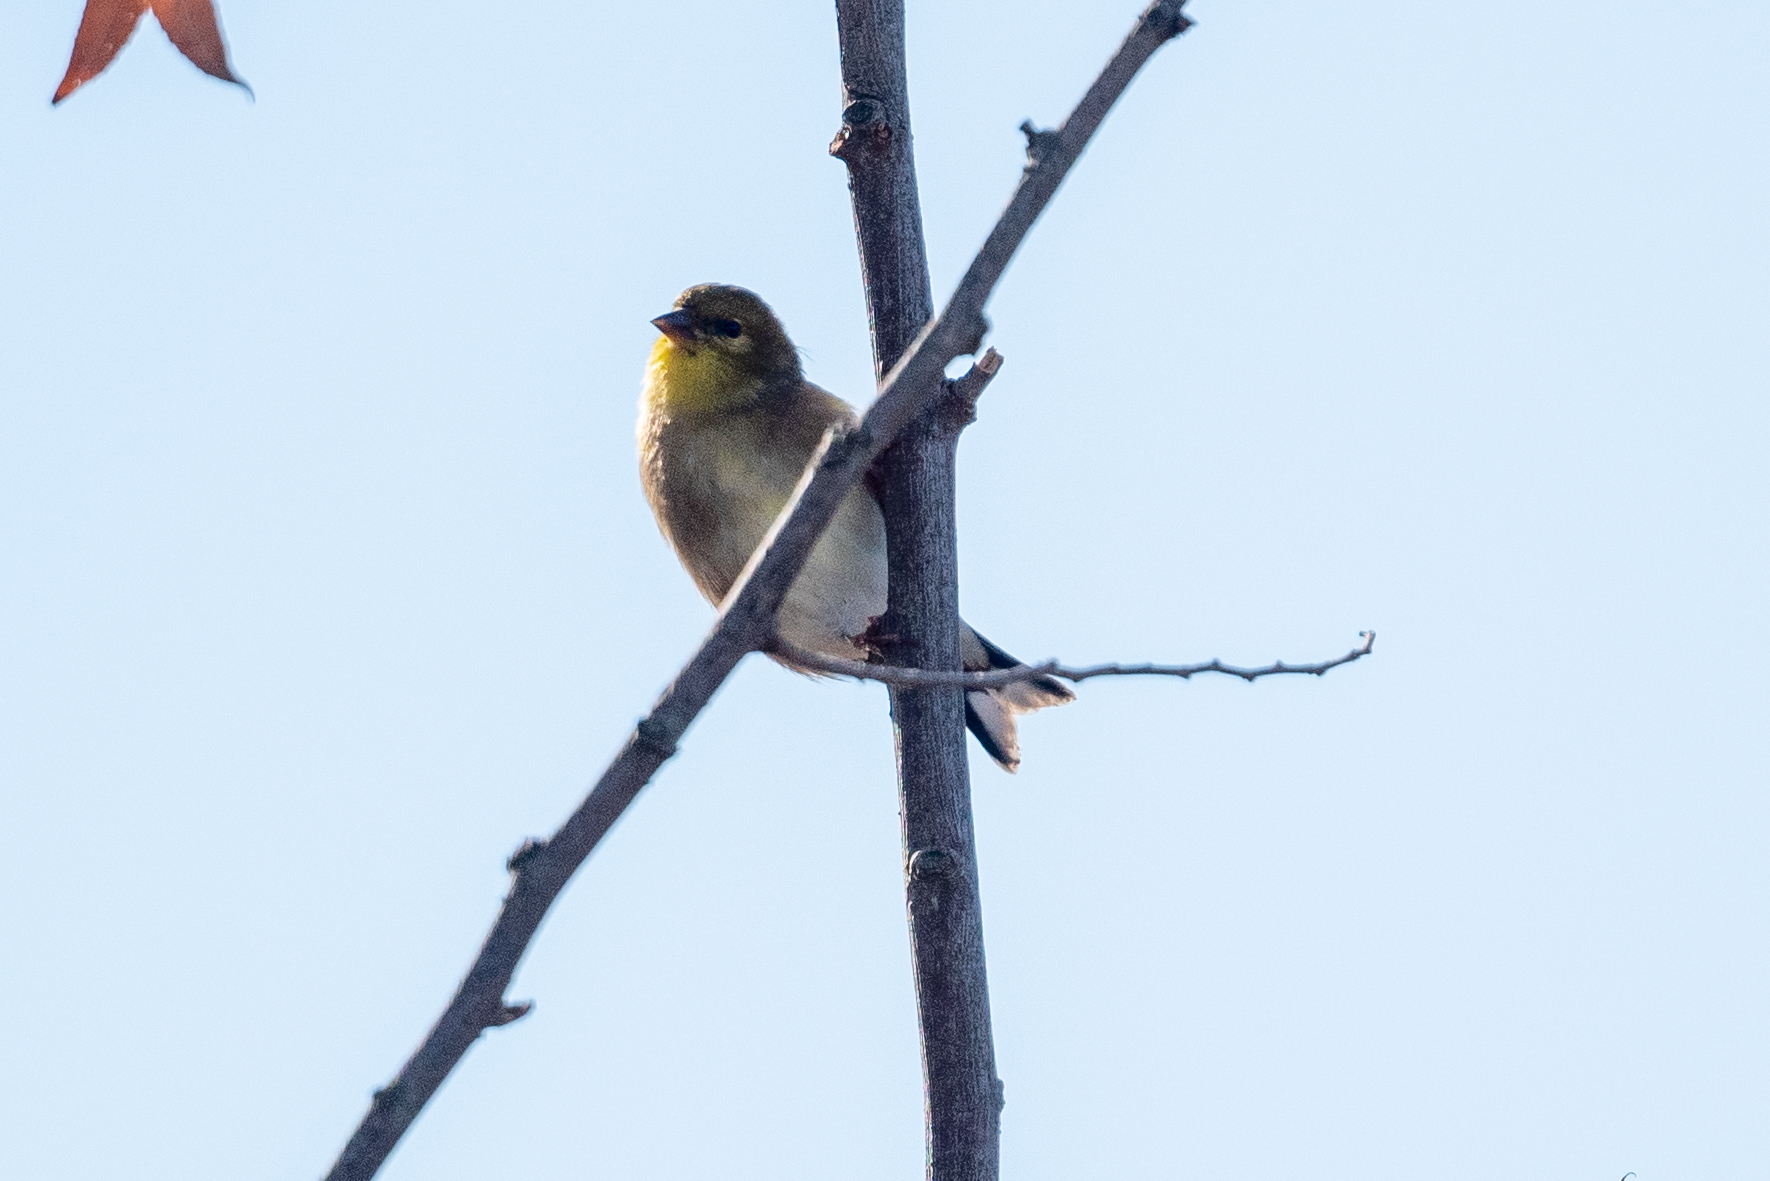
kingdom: Animalia
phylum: Chordata
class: Aves
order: Passeriformes
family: Fringillidae
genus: Spinus
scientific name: Spinus tristis
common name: American goldfinch
